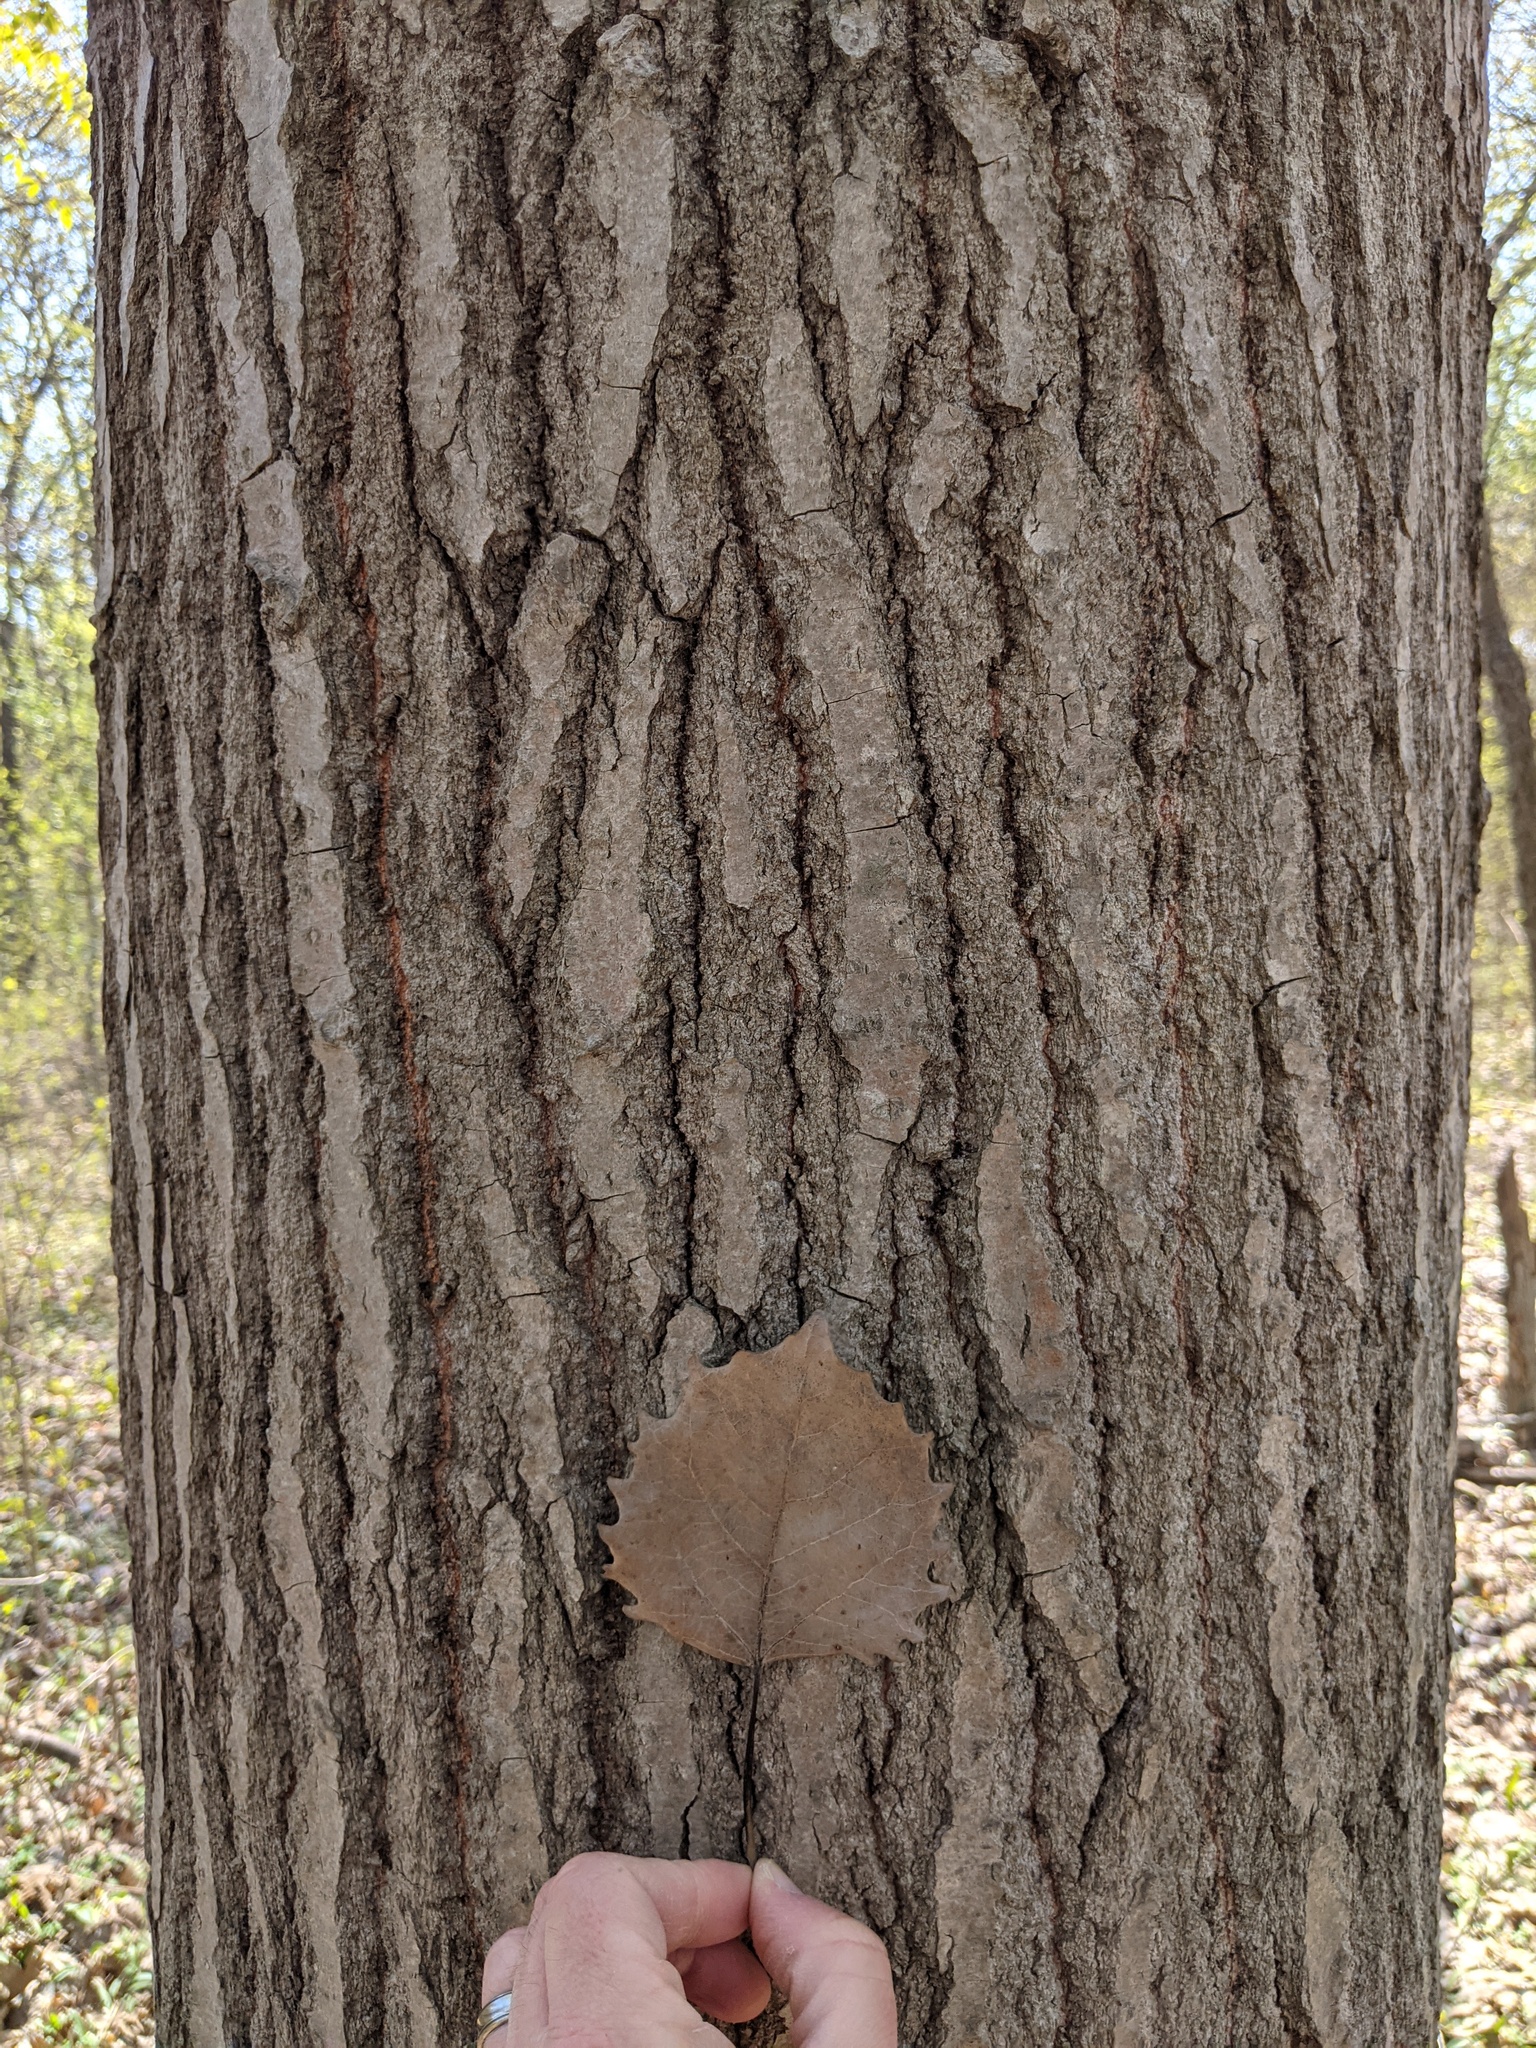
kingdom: Plantae
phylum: Tracheophyta
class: Magnoliopsida
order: Malpighiales
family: Salicaceae
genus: Populus
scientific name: Populus grandidentata
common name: Bigtooth aspen
